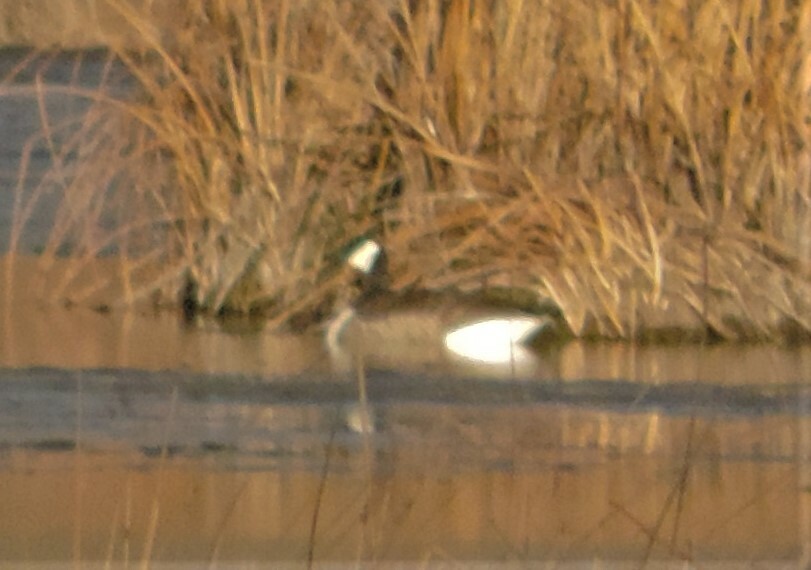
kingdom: Animalia
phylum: Chordata
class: Aves
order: Anseriformes
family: Anatidae
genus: Branta
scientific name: Branta canadensis
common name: Canada goose
